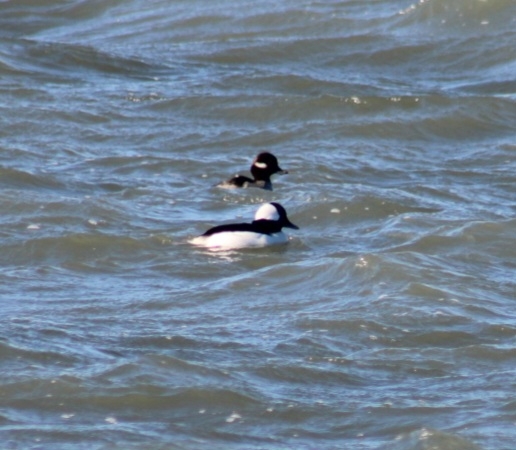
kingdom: Animalia
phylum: Chordata
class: Aves
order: Anseriformes
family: Anatidae
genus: Bucephala
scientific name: Bucephala albeola
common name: Bufflehead
